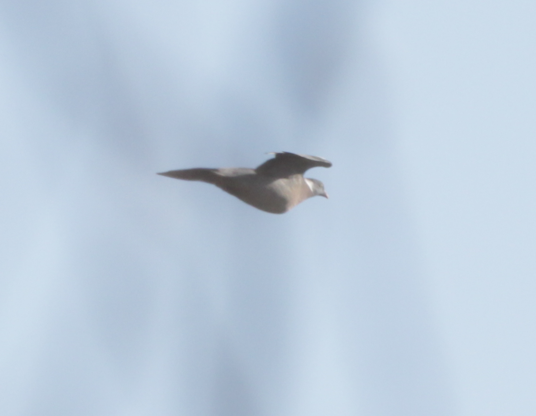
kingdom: Animalia
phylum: Chordata
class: Aves
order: Columbiformes
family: Columbidae
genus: Columba
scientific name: Columba palumbus
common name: Common wood pigeon
